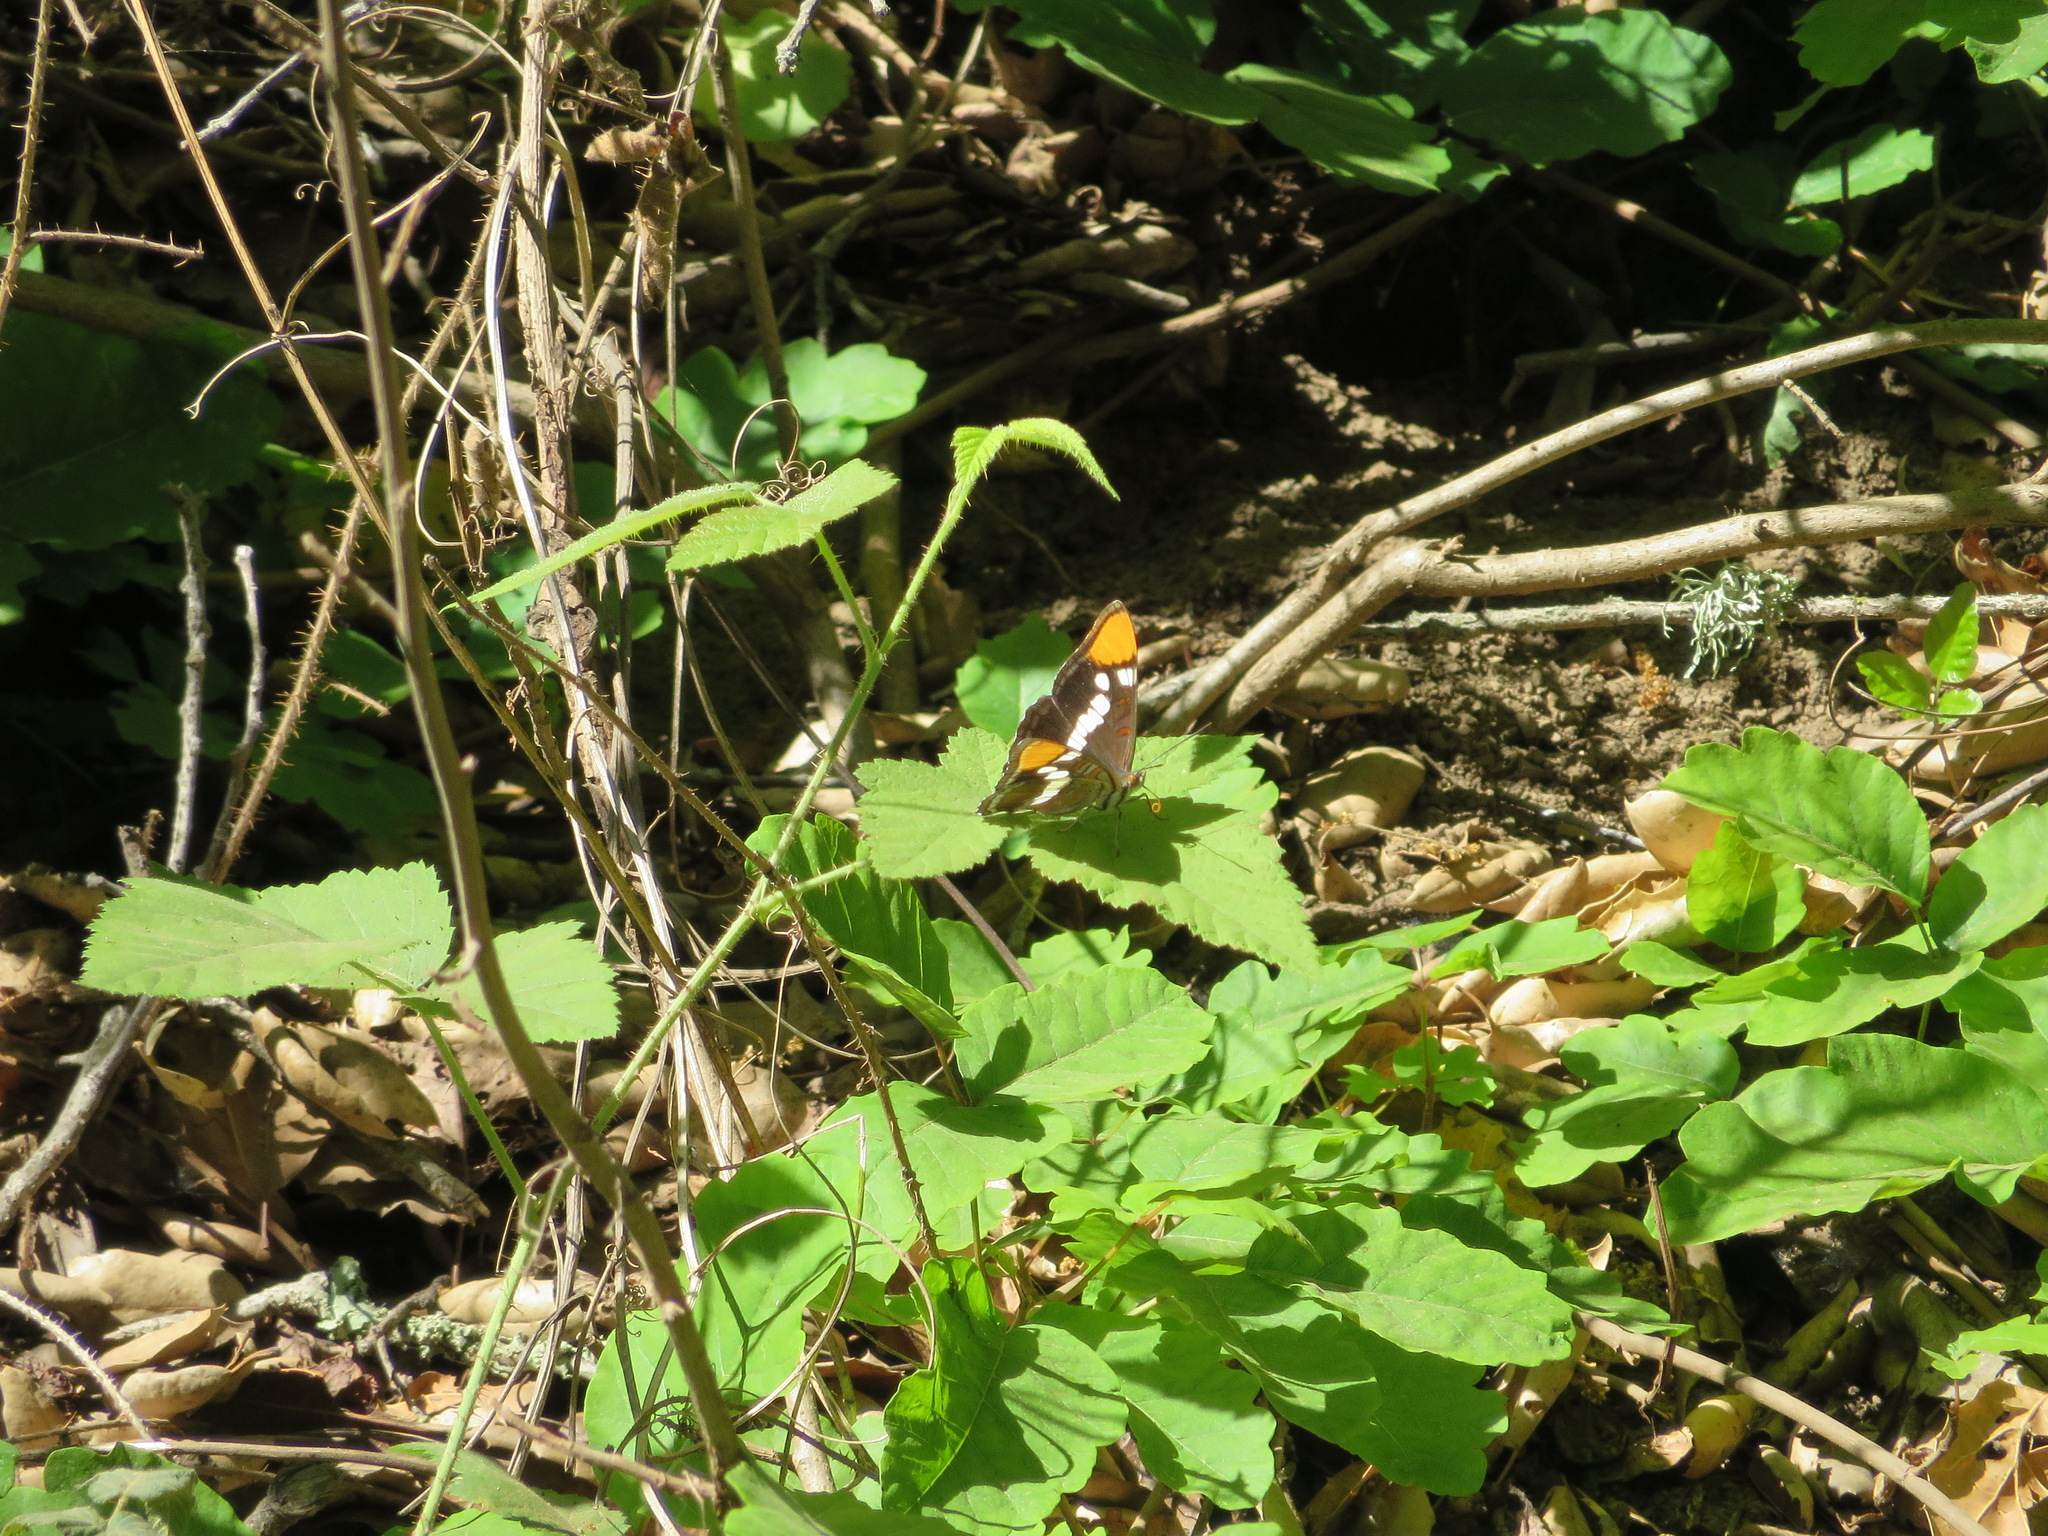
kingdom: Animalia
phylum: Arthropoda
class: Insecta
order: Lepidoptera
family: Nymphalidae
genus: Limenitis
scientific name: Limenitis bredowii
